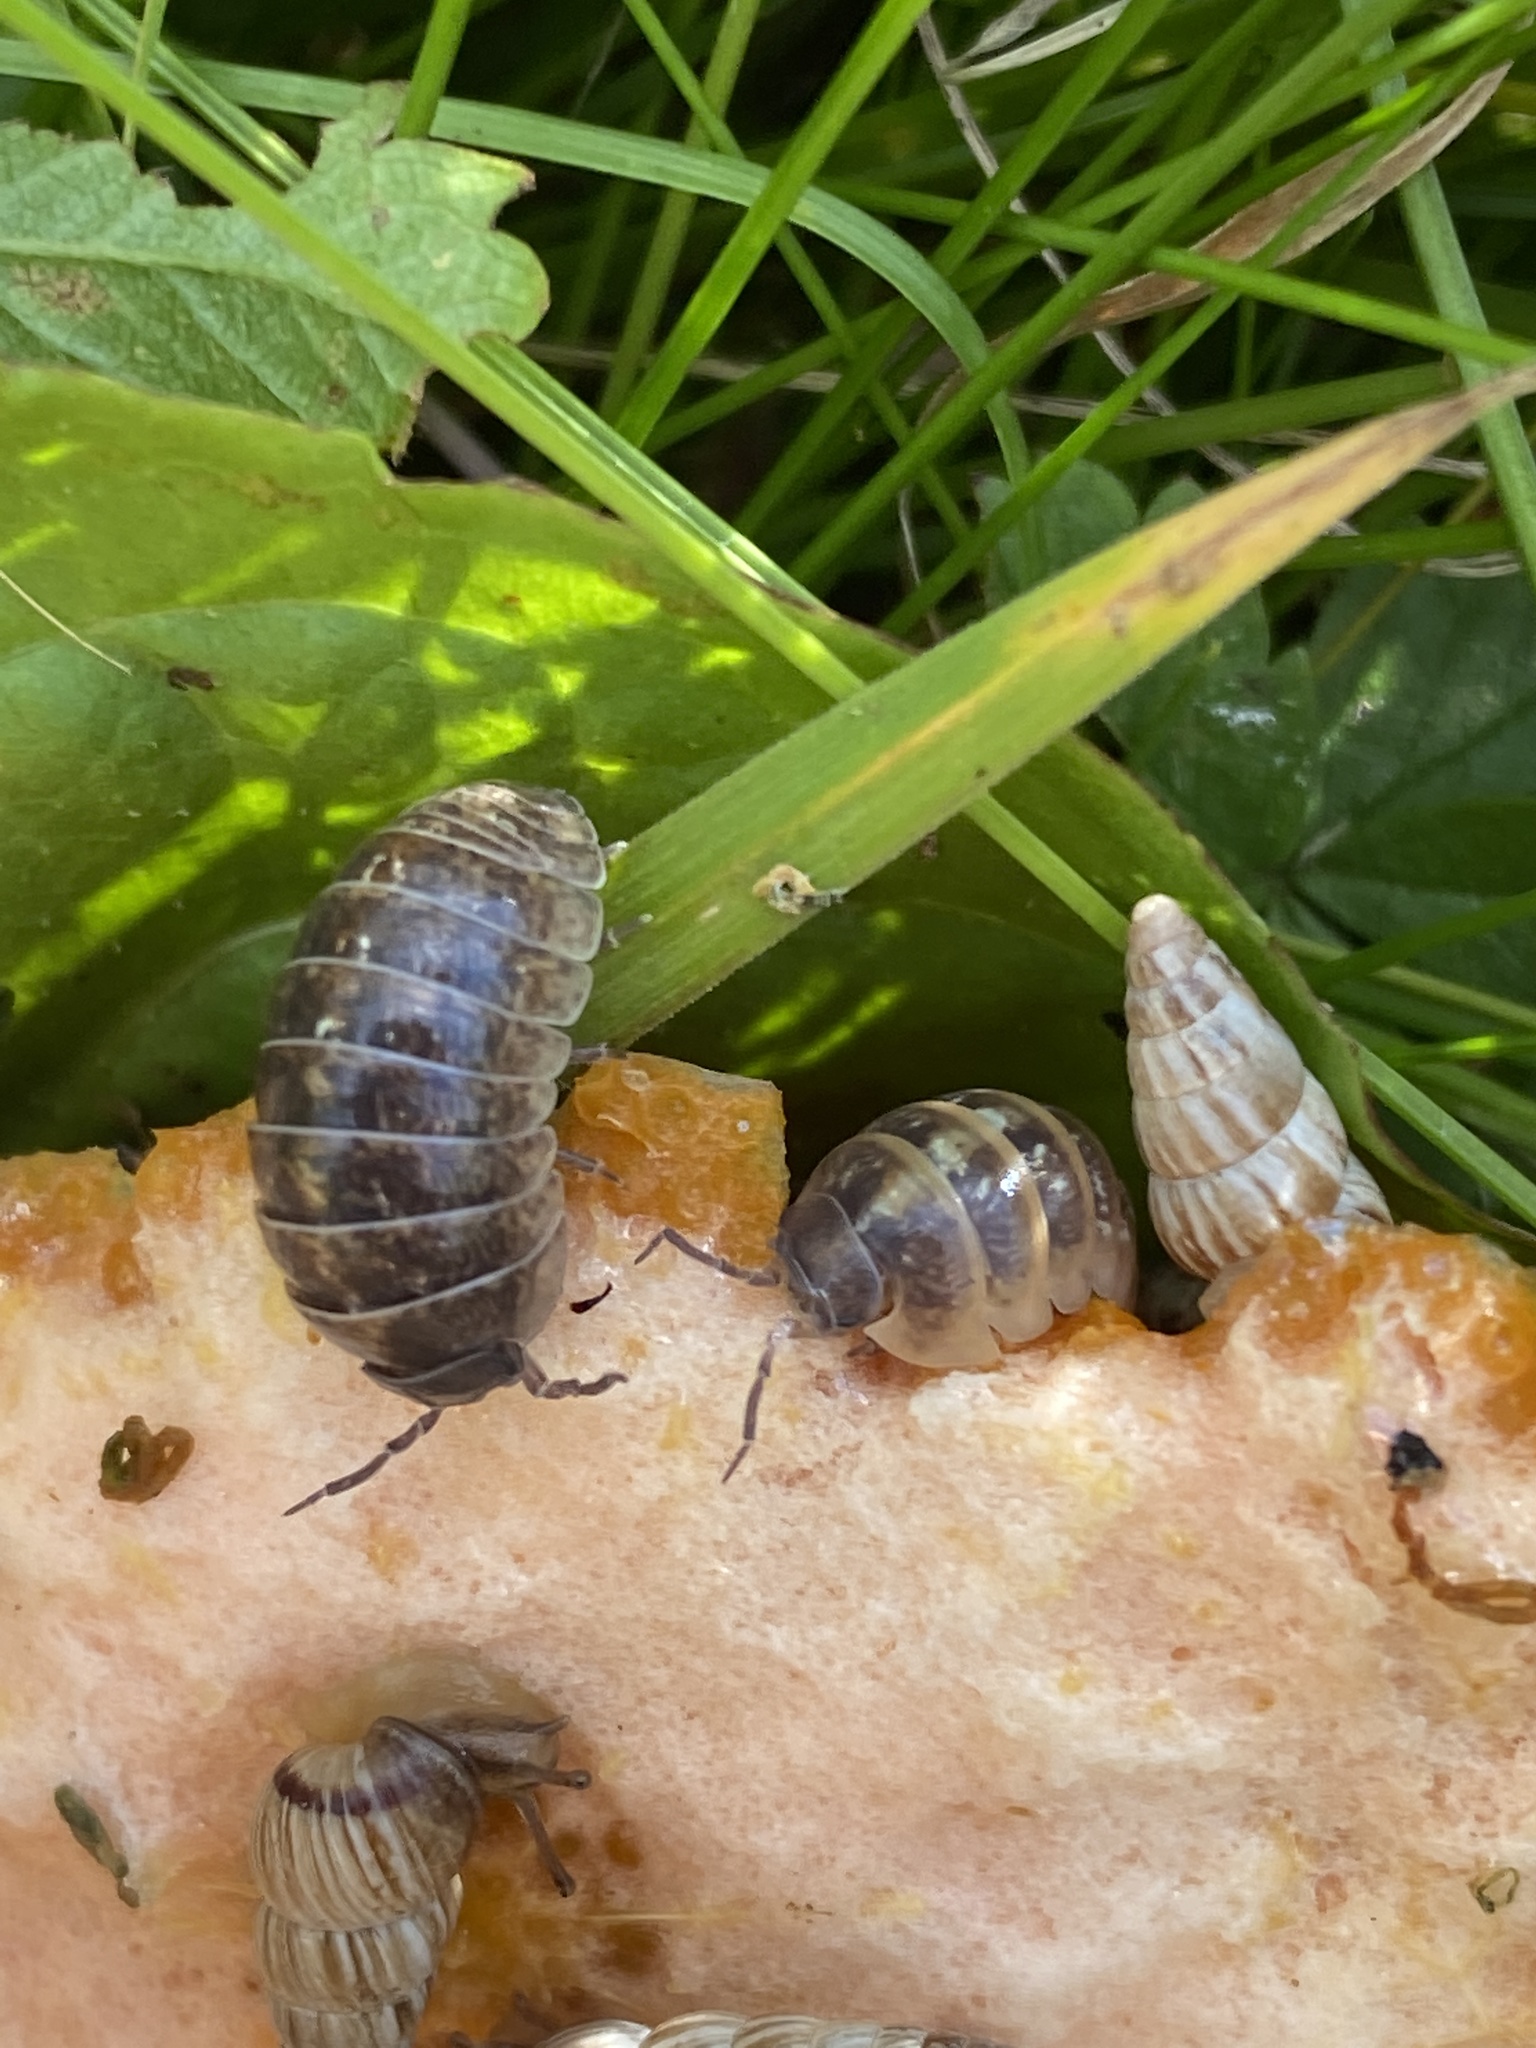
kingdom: Animalia
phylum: Arthropoda
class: Malacostraca
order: Isopoda
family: Armadillidiidae
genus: Armadillidium
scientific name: Armadillidium vulgare
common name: Common pill woodlouse
